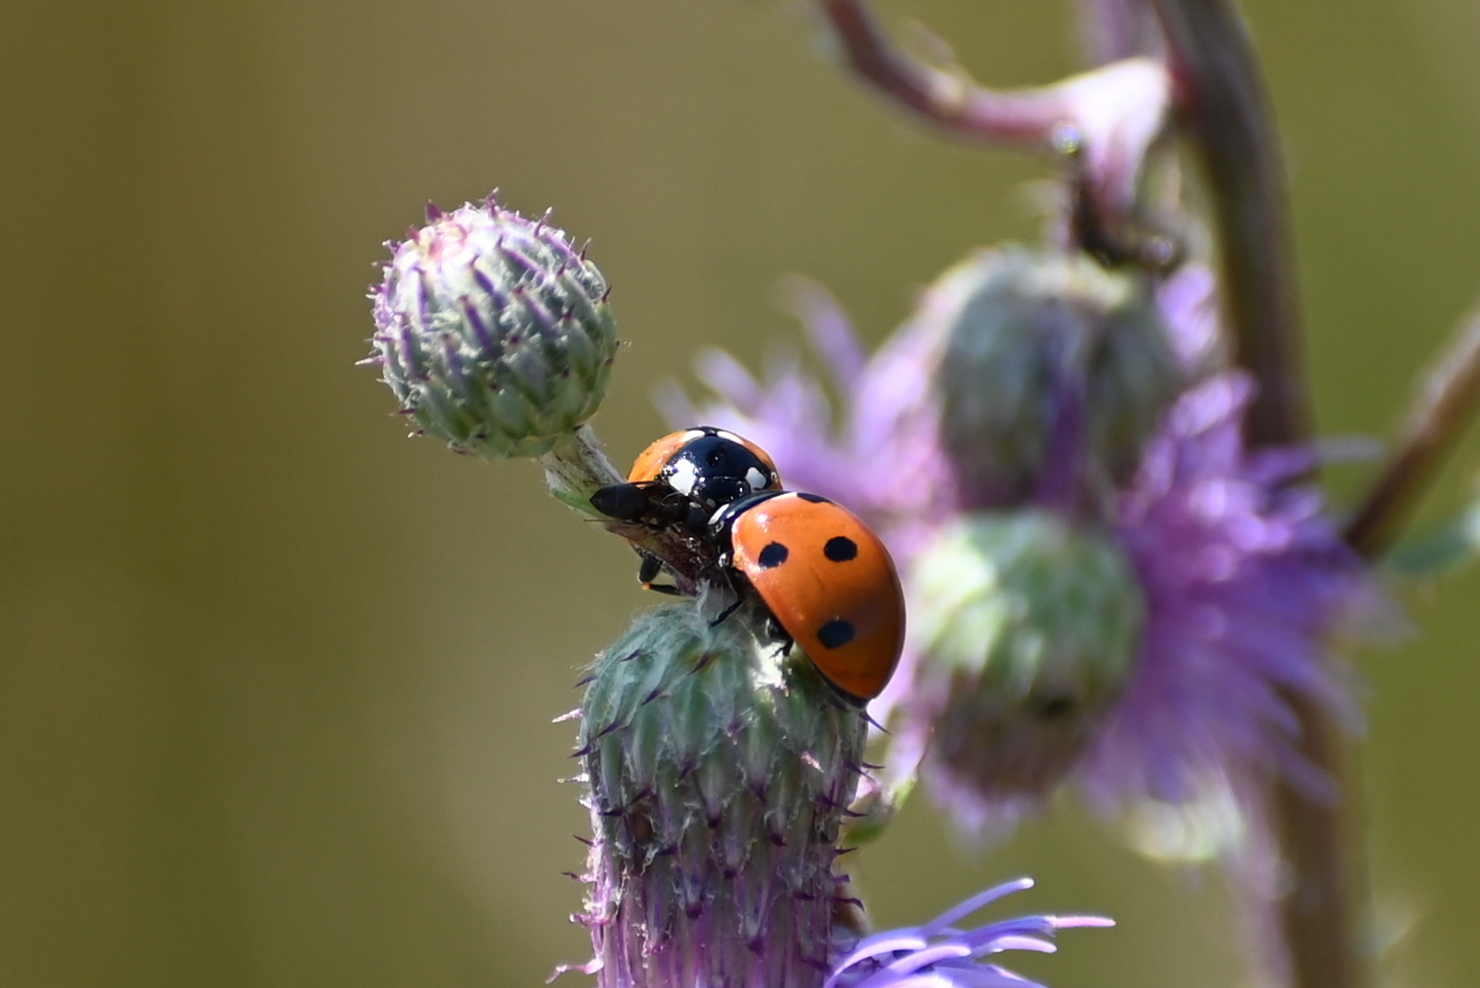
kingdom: Animalia
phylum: Arthropoda
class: Insecta
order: Coleoptera
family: Coccinellidae
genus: Coccinella
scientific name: Coccinella septempunctata
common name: Sevenspotted lady beetle
